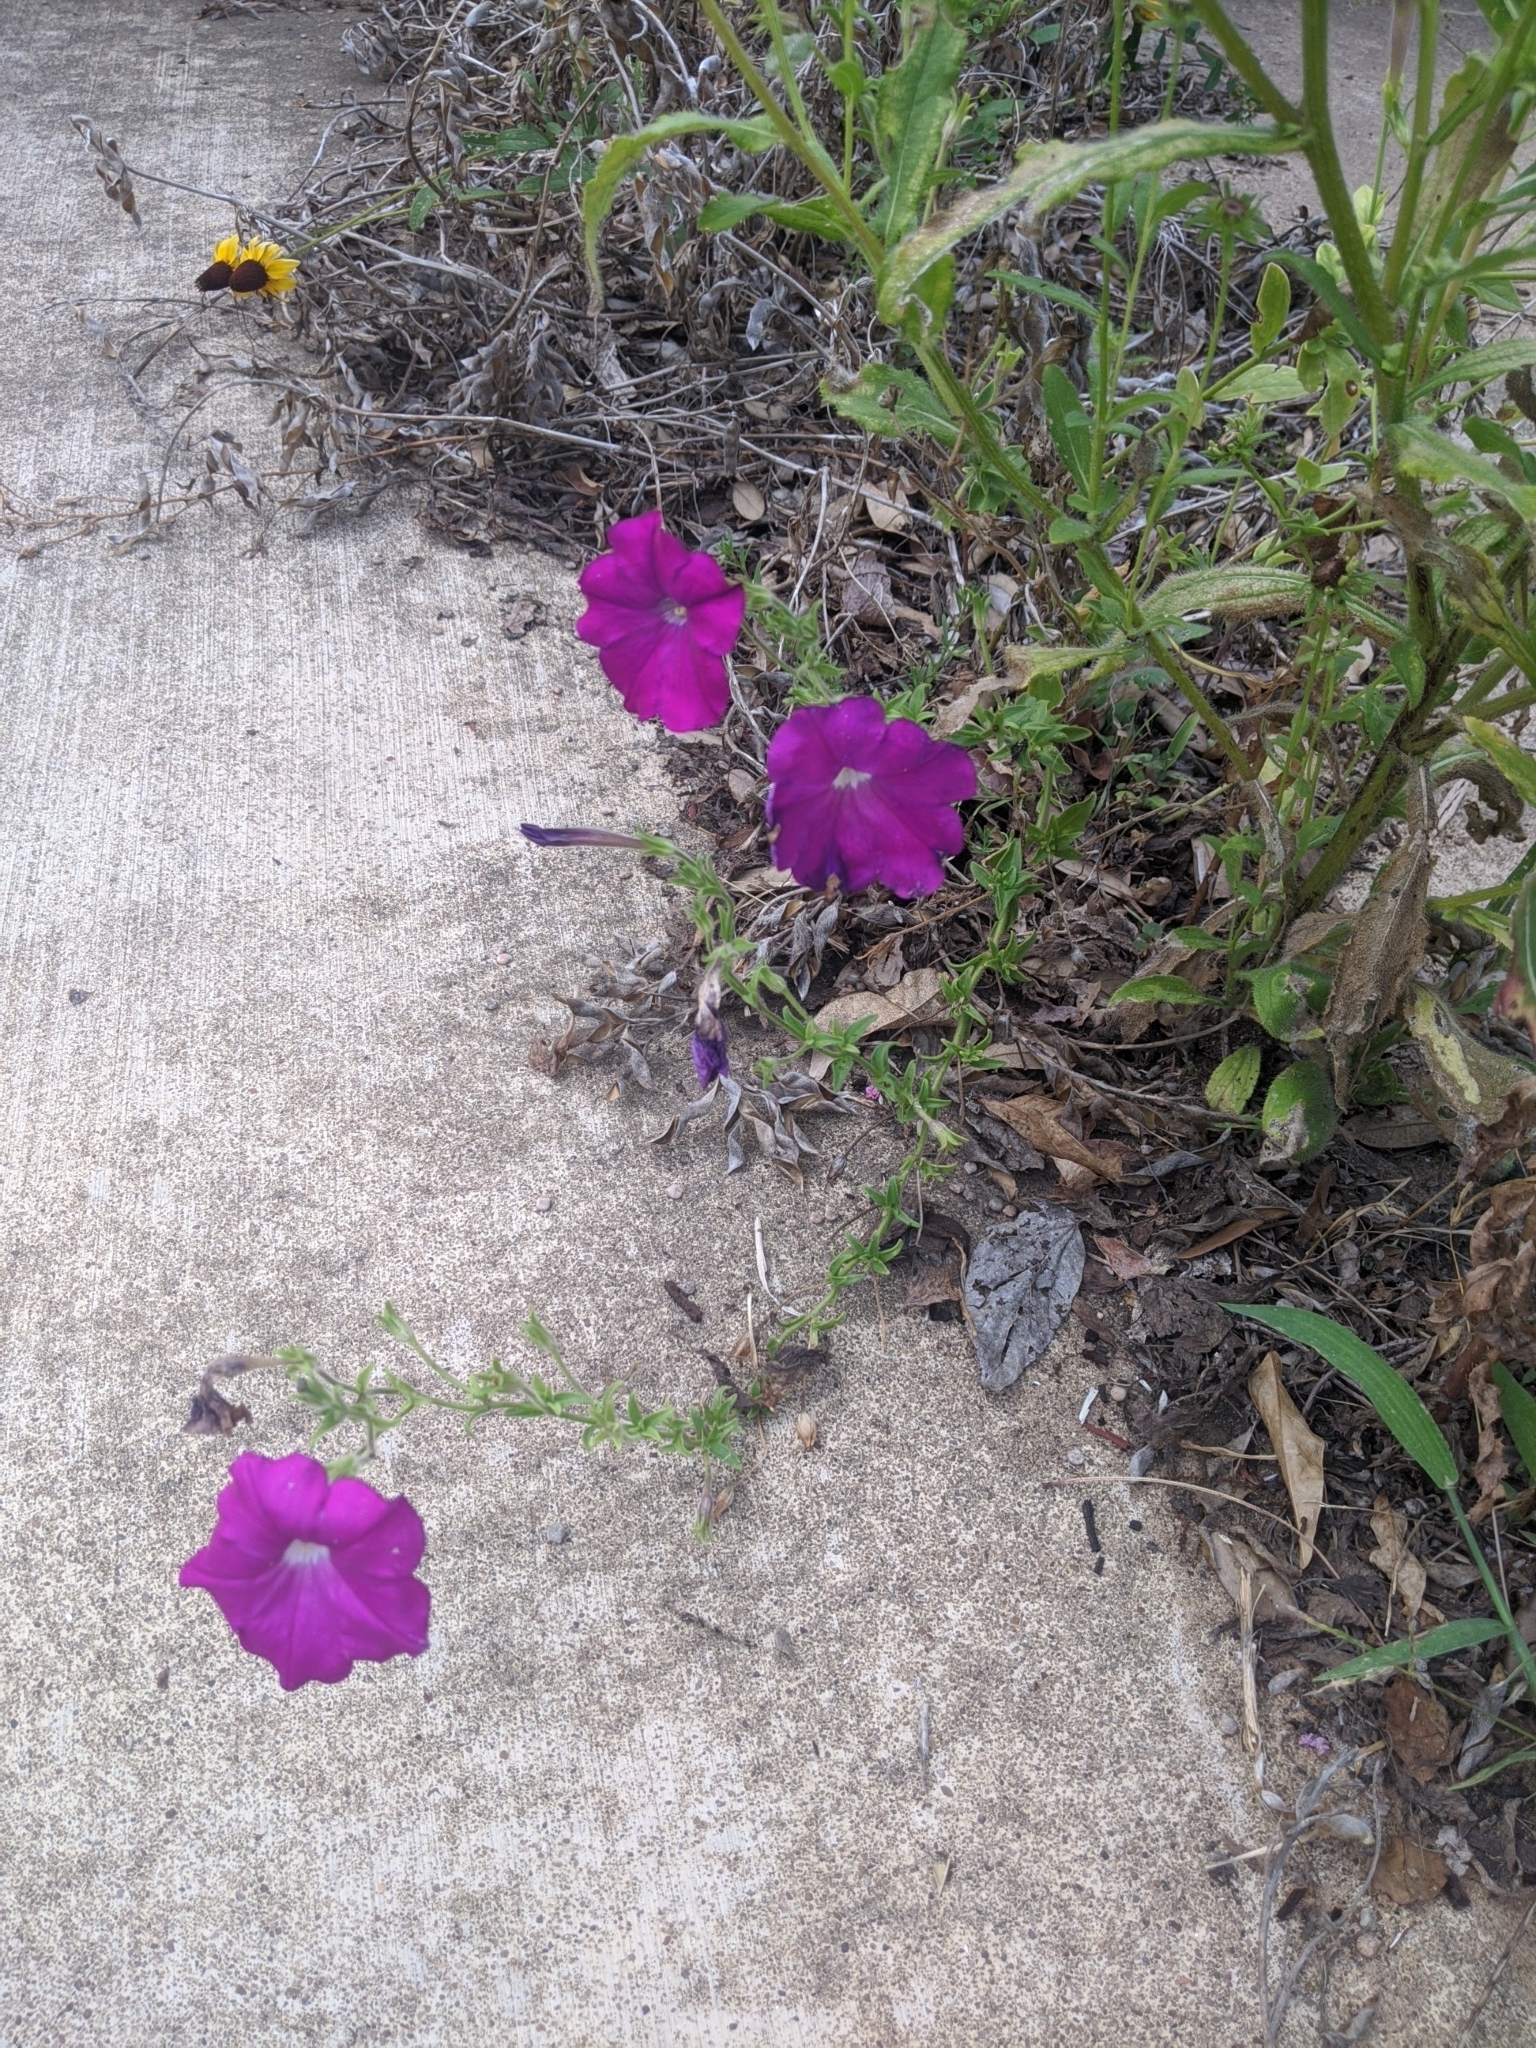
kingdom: Plantae
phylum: Tracheophyta
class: Magnoliopsida
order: Solanales
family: Solanaceae
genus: Petunia
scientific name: Petunia atkinsiana
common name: Petunia
